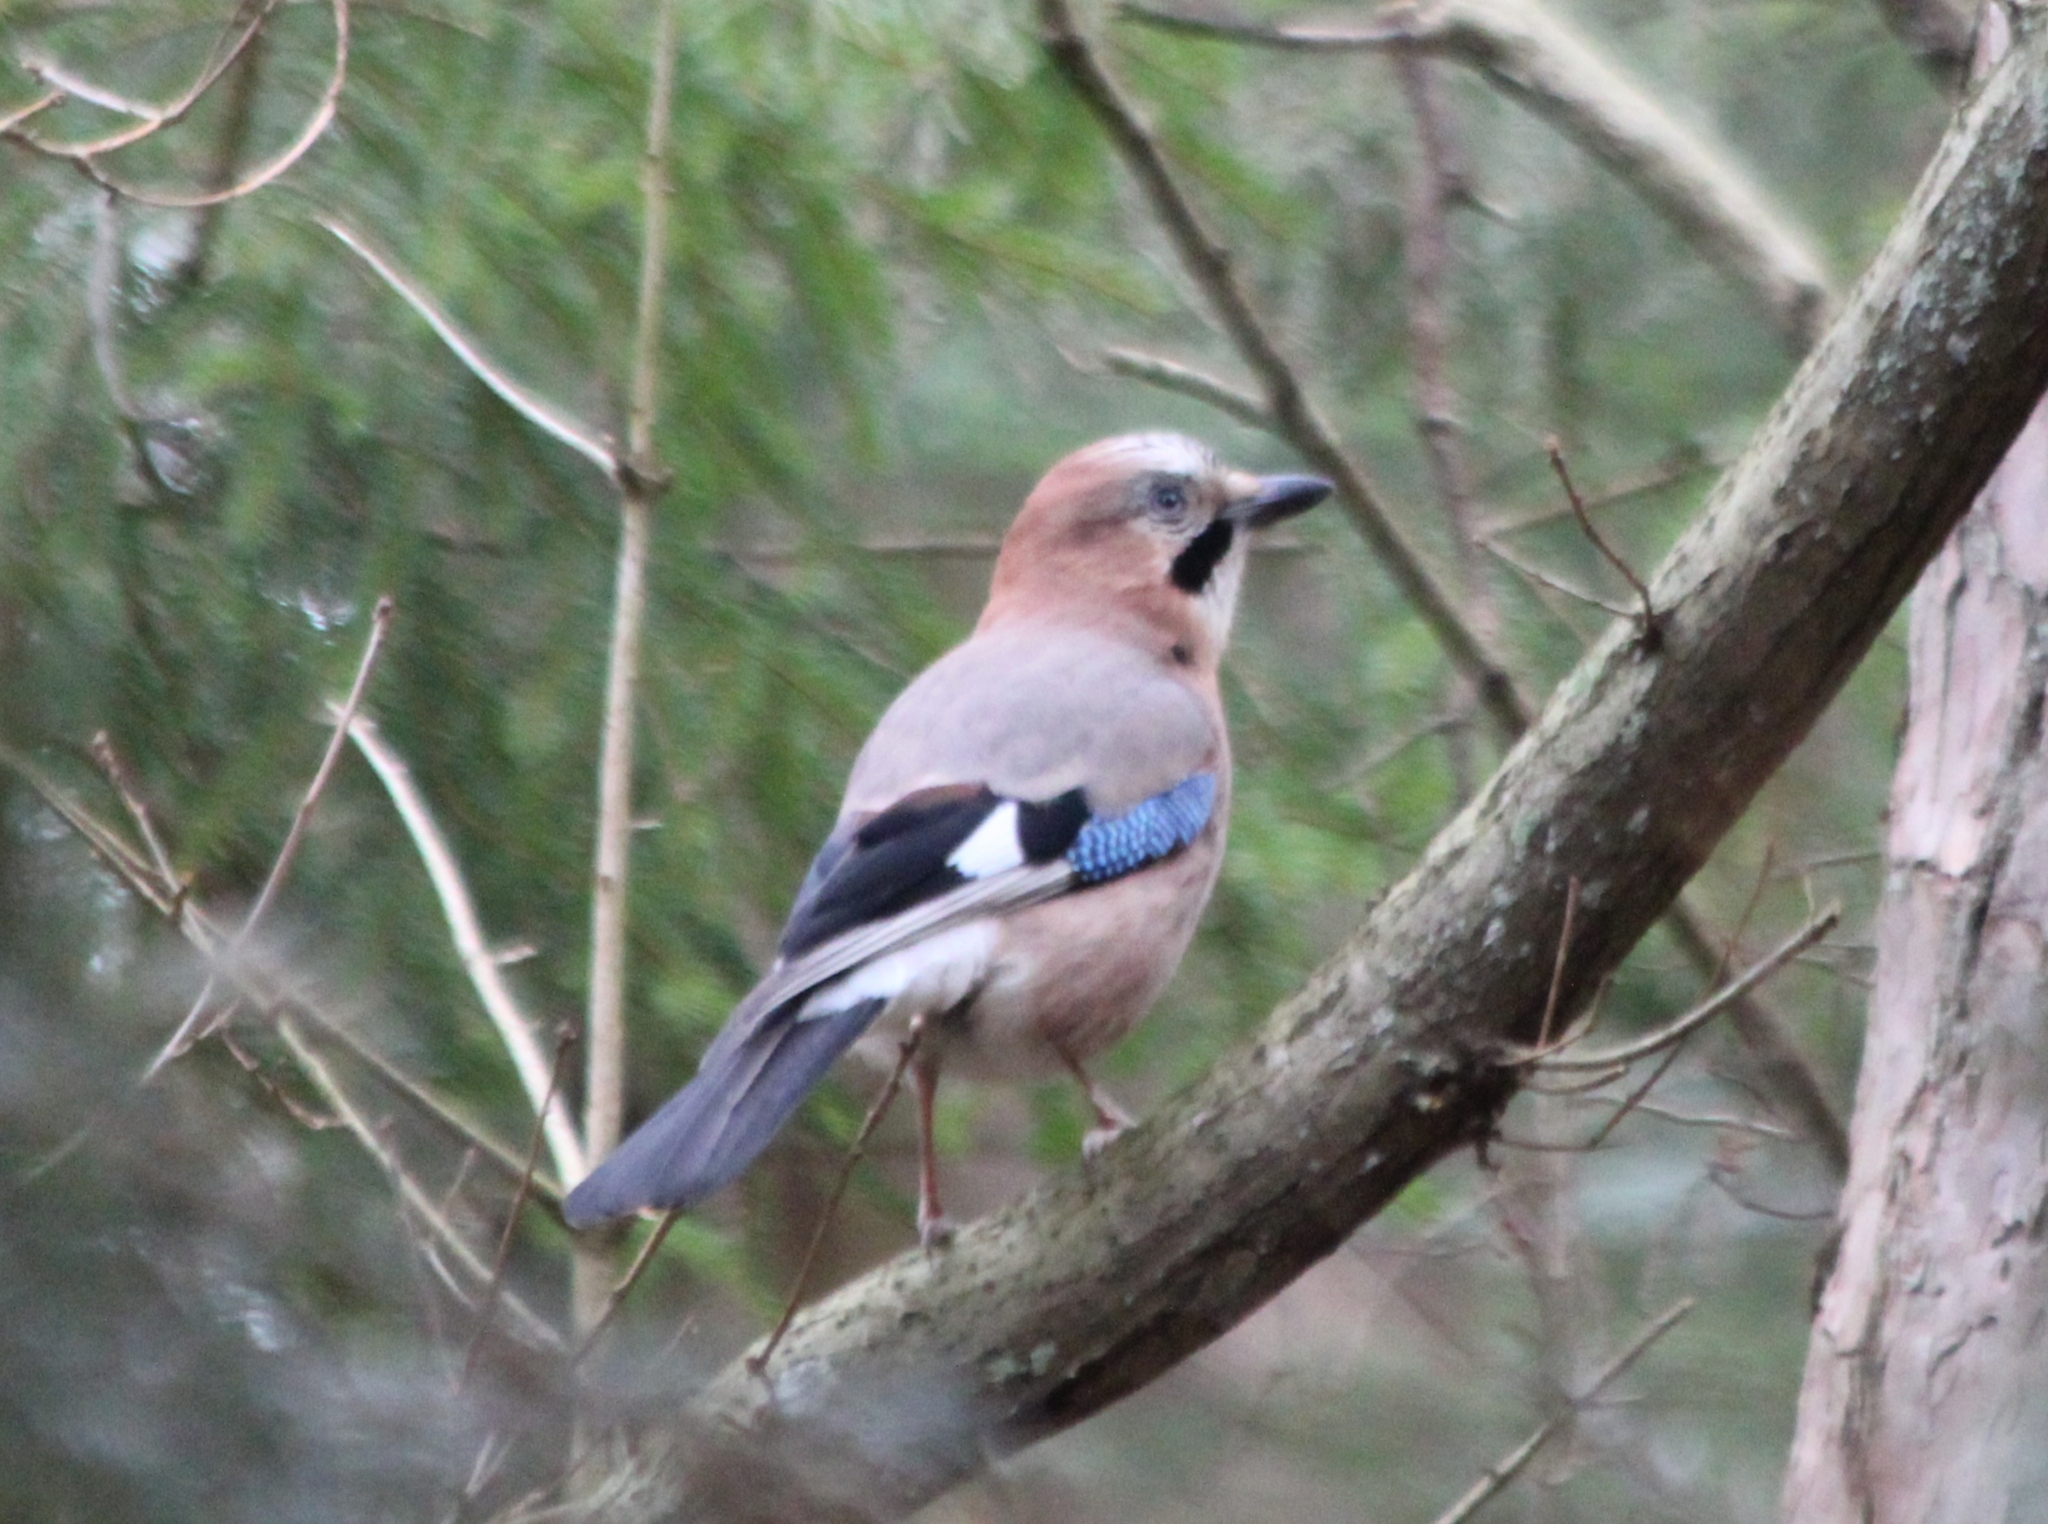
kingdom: Animalia
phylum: Chordata
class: Aves
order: Passeriformes
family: Corvidae
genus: Garrulus
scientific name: Garrulus glandarius
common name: Eurasian jay
